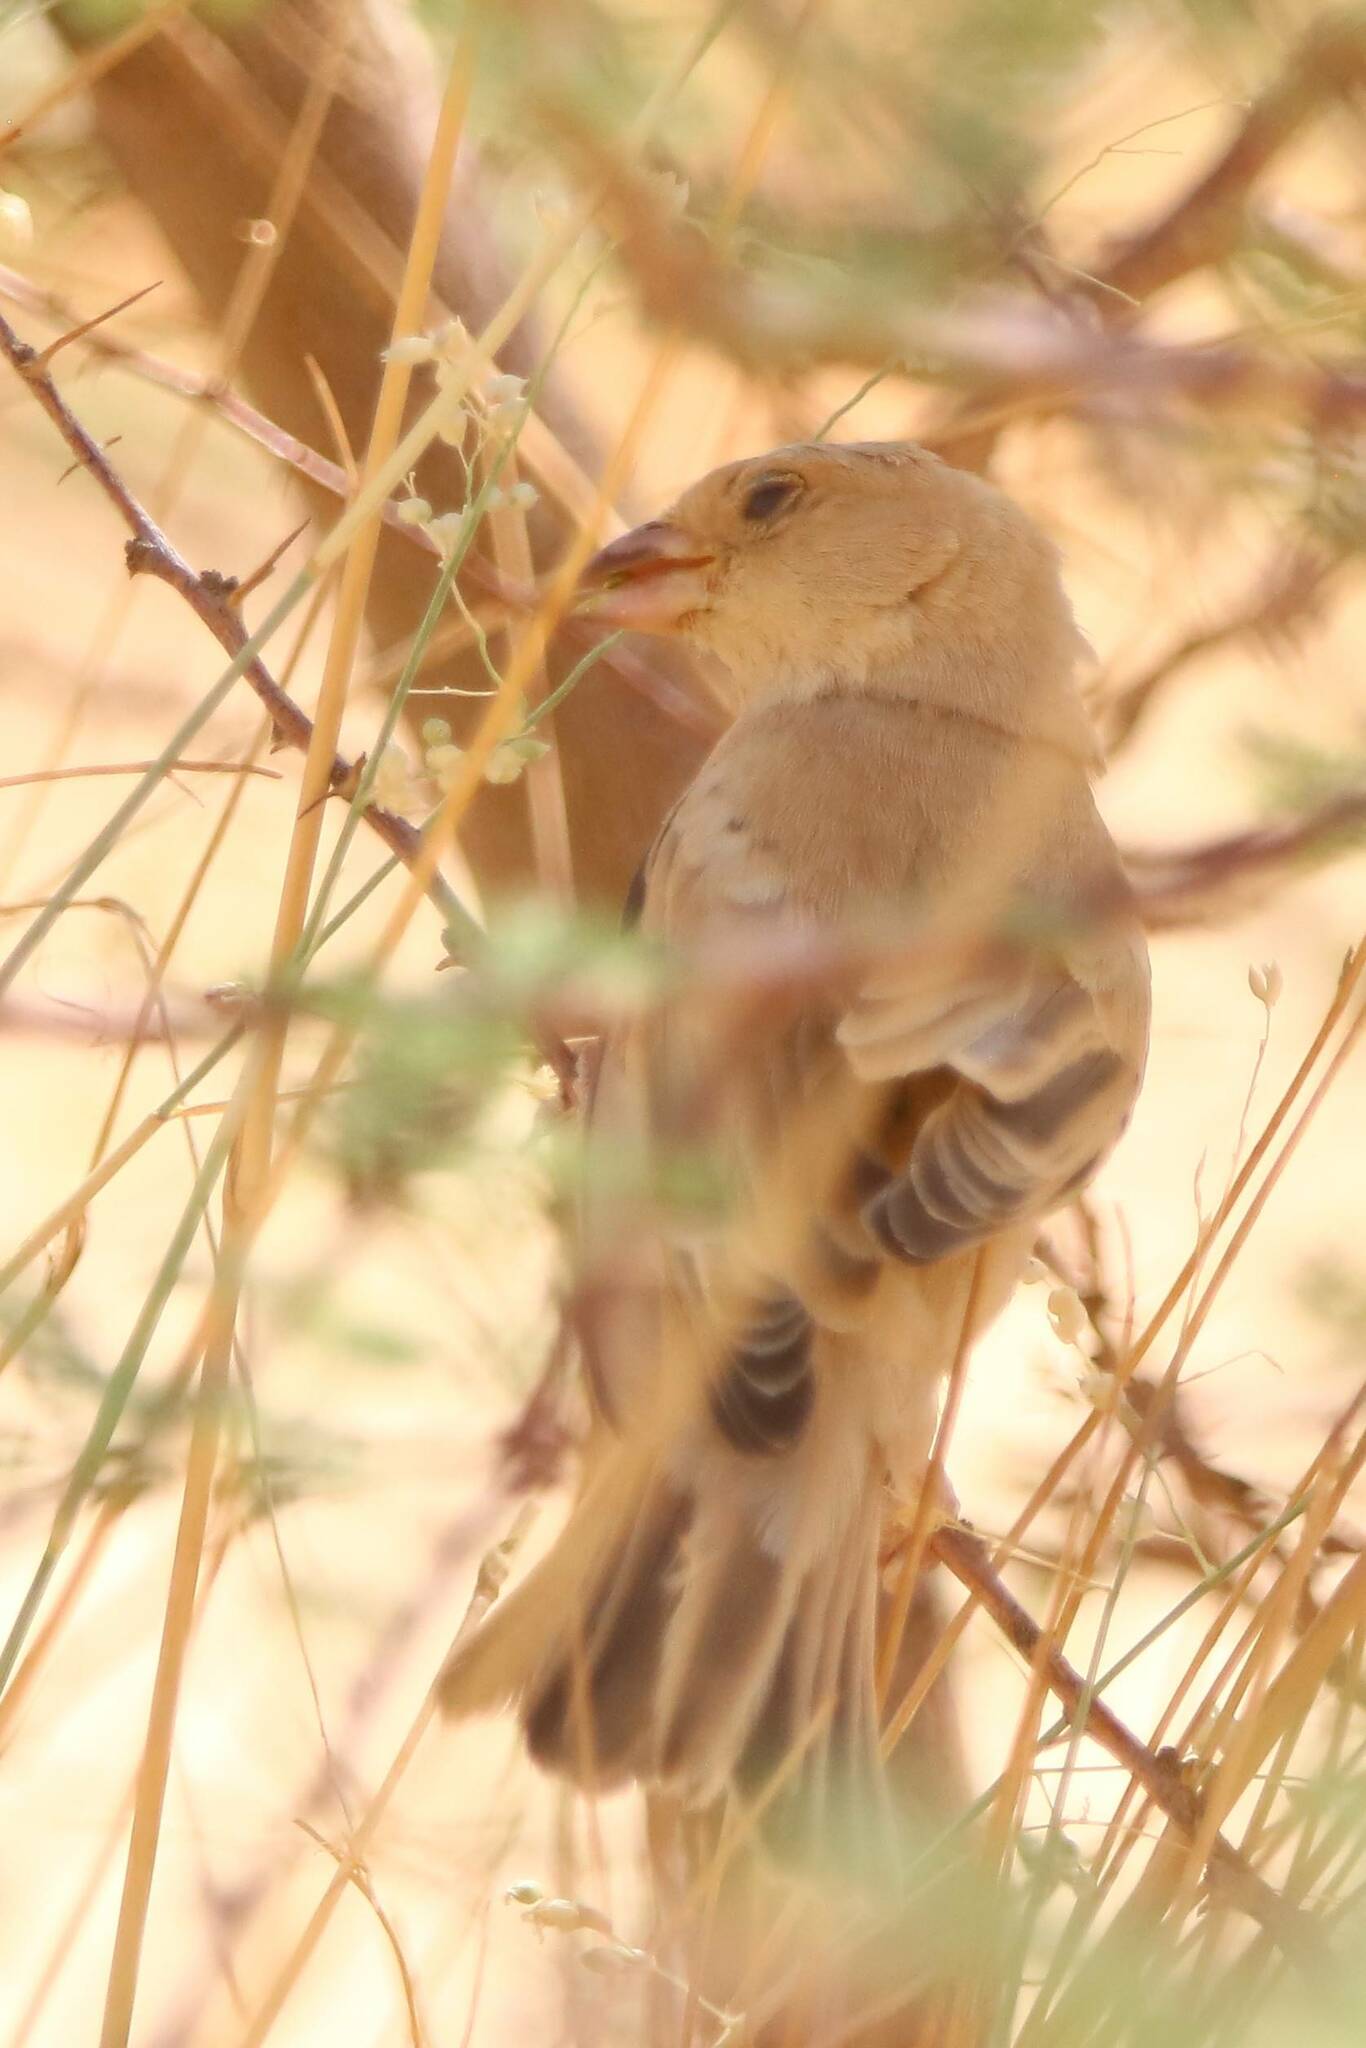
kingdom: Animalia
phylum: Chordata
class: Aves
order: Passeriformes
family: Passeridae
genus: Passer
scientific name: Passer simplex
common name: Desert sparrow
